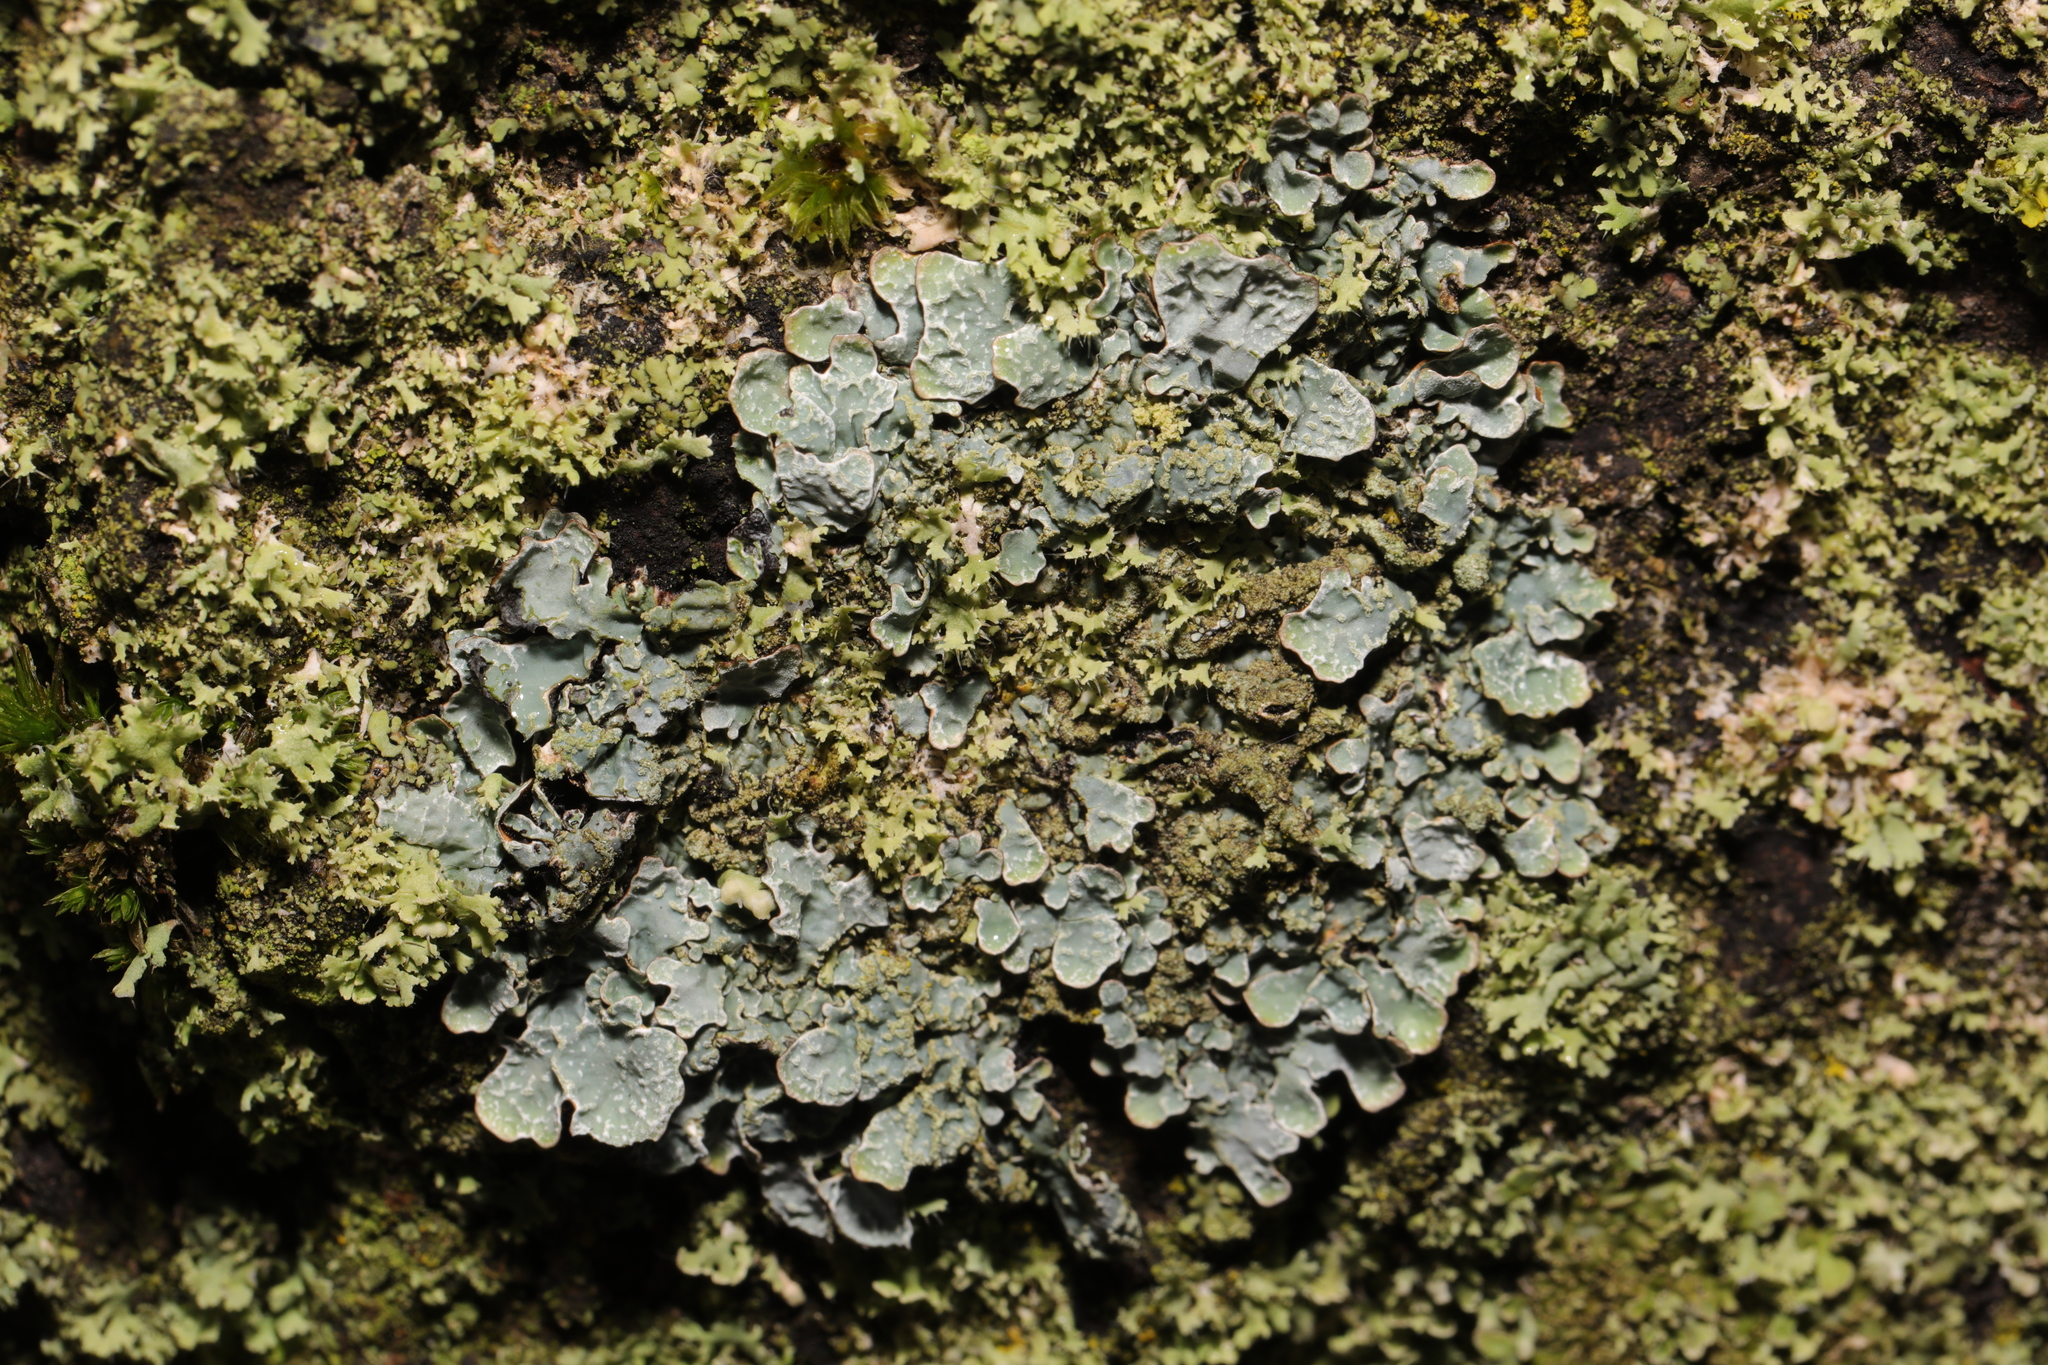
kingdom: Fungi
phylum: Ascomycota
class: Lecanoromycetes
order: Lecanorales
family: Parmeliaceae
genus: Parmelia
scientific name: Parmelia sulcata
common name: Netted shield lichen
